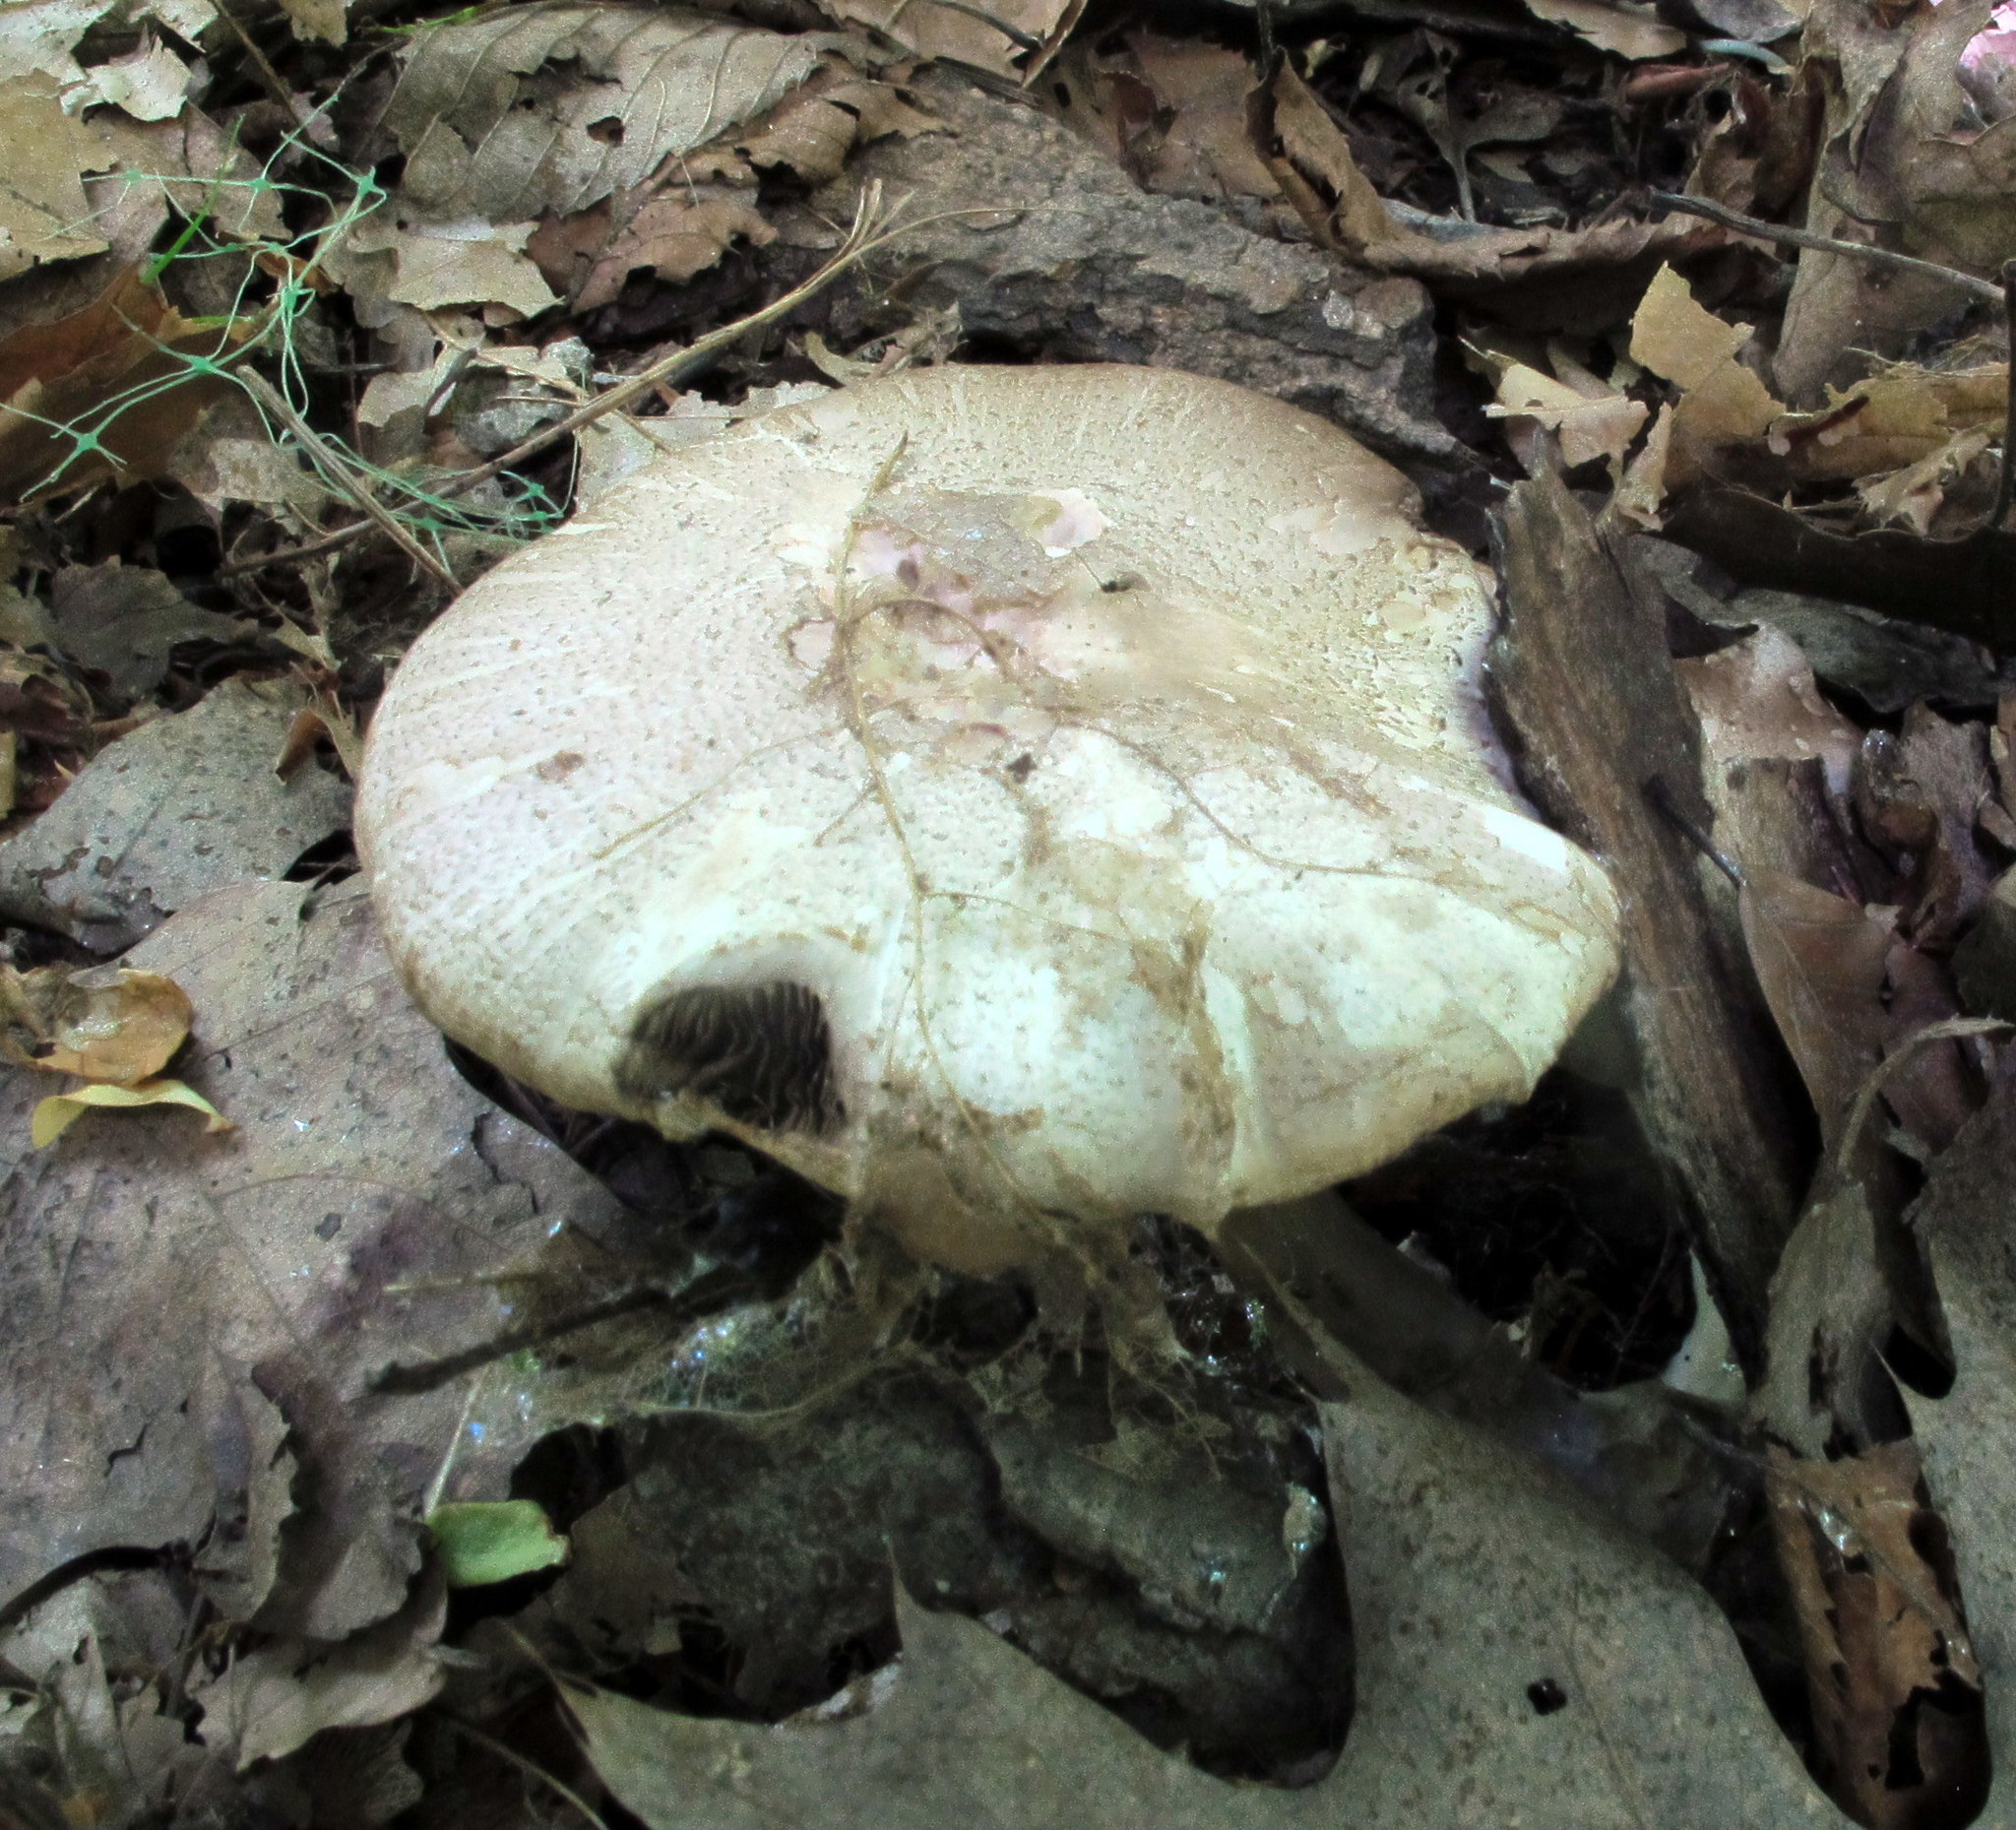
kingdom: Fungi
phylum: Basidiomycota
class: Agaricomycetes
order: Agaricales
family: Agaricaceae
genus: Agaricus
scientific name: Agaricus placomyces
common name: Inky mushroom
